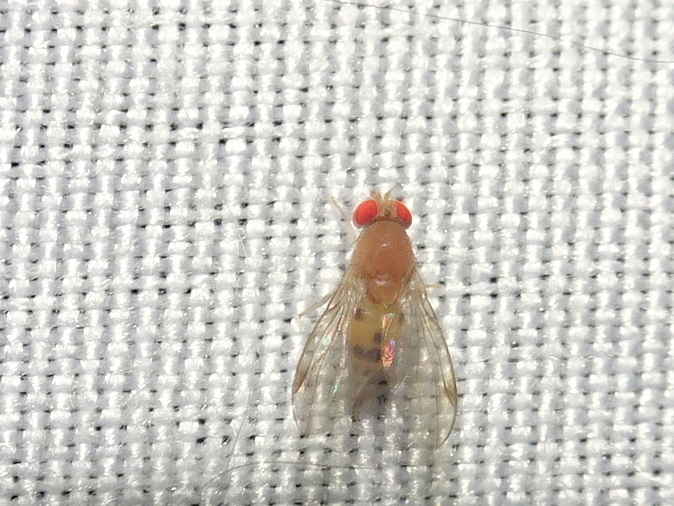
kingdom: Animalia
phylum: Arthropoda
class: Insecta
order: Diptera
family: Drosophilidae
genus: Leucophenga
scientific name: Leucophenga varia
